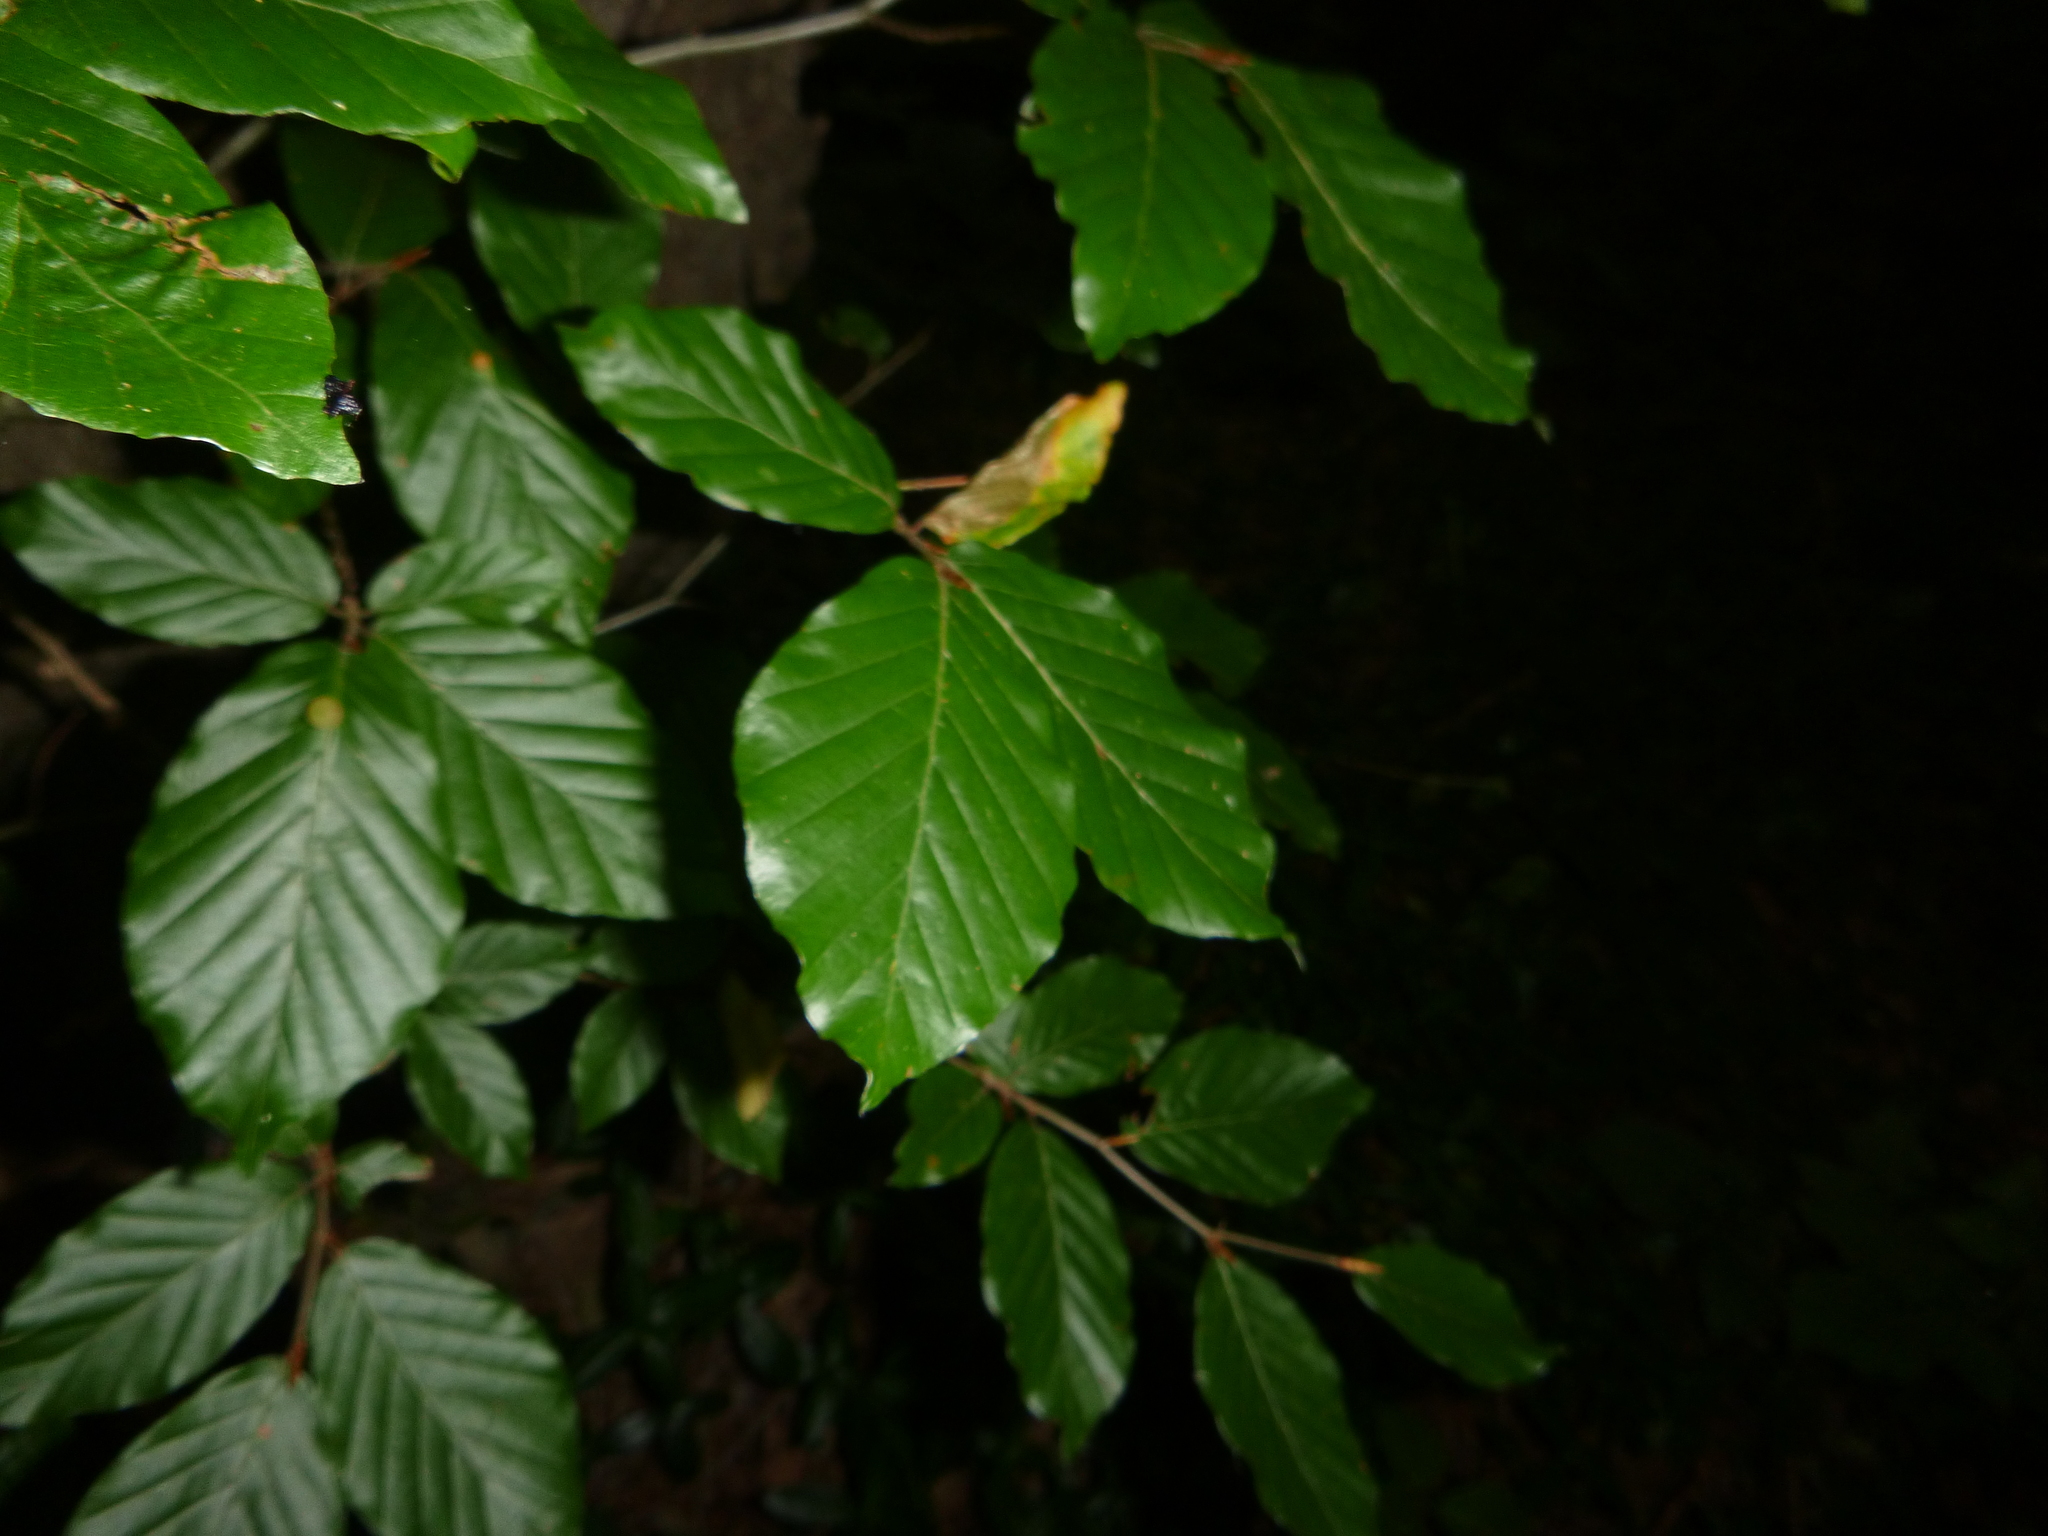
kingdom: Plantae
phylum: Tracheophyta
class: Magnoliopsida
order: Fagales
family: Fagaceae
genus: Fagus
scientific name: Fagus sylvatica
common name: Beech
